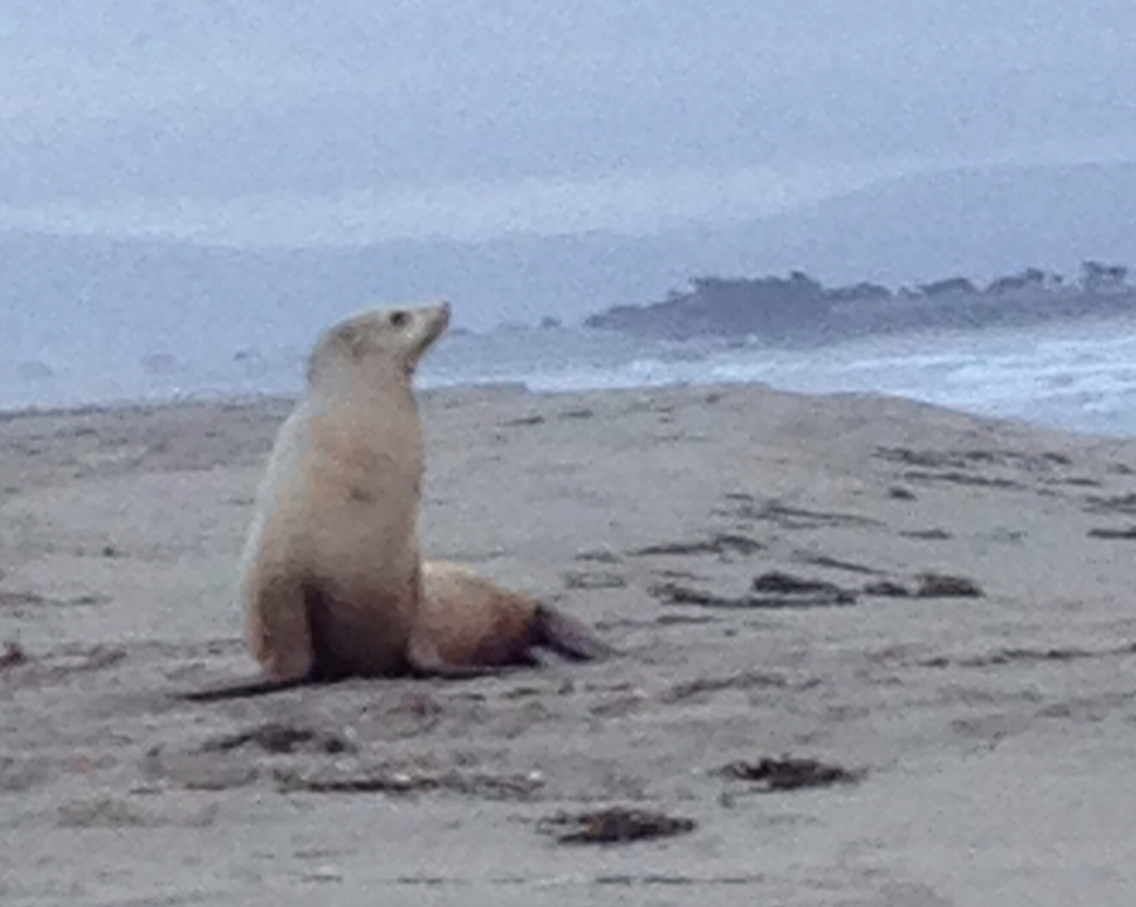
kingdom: Animalia
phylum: Chordata
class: Mammalia
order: Carnivora
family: Otariidae
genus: Zalophus
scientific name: Zalophus californianus
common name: California sea lion
